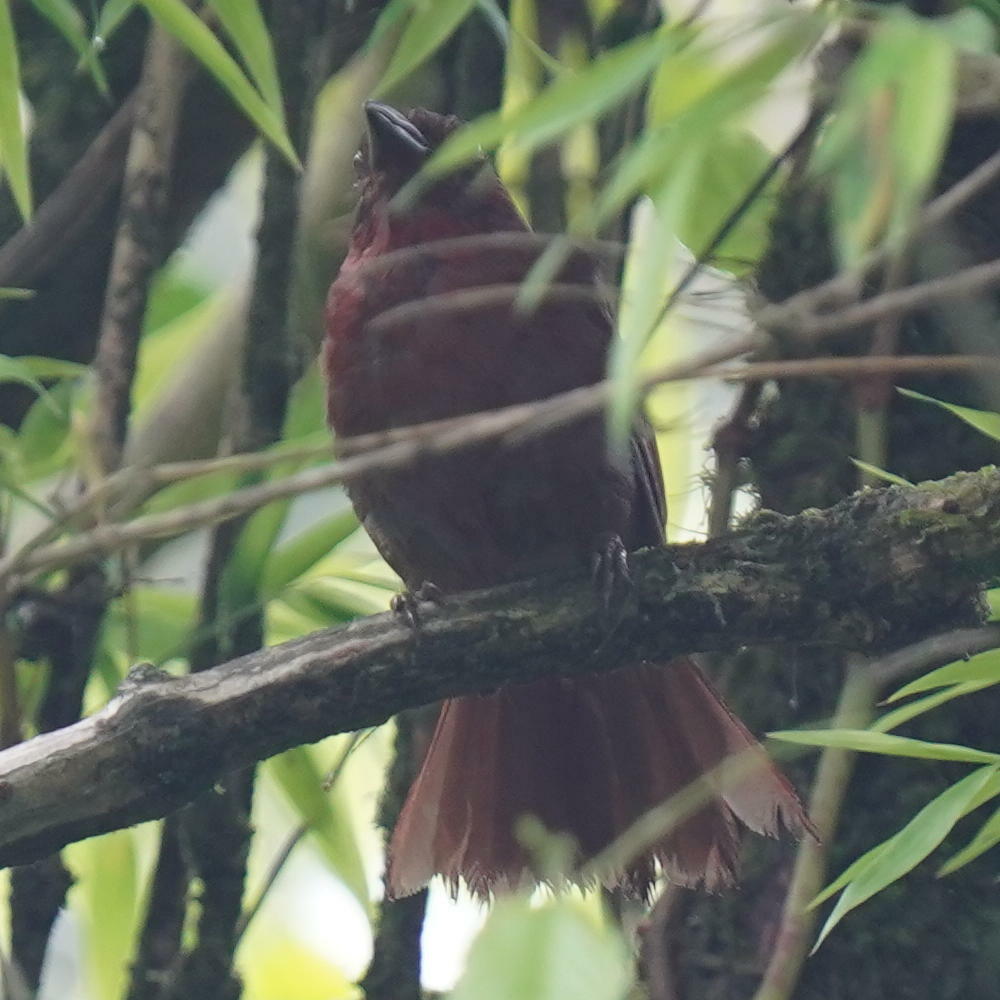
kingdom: Animalia
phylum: Chordata
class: Aves
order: Passeriformes
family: Cardinalidae
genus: Habia
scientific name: Habia rubica
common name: Red-crowned ant-tanager
